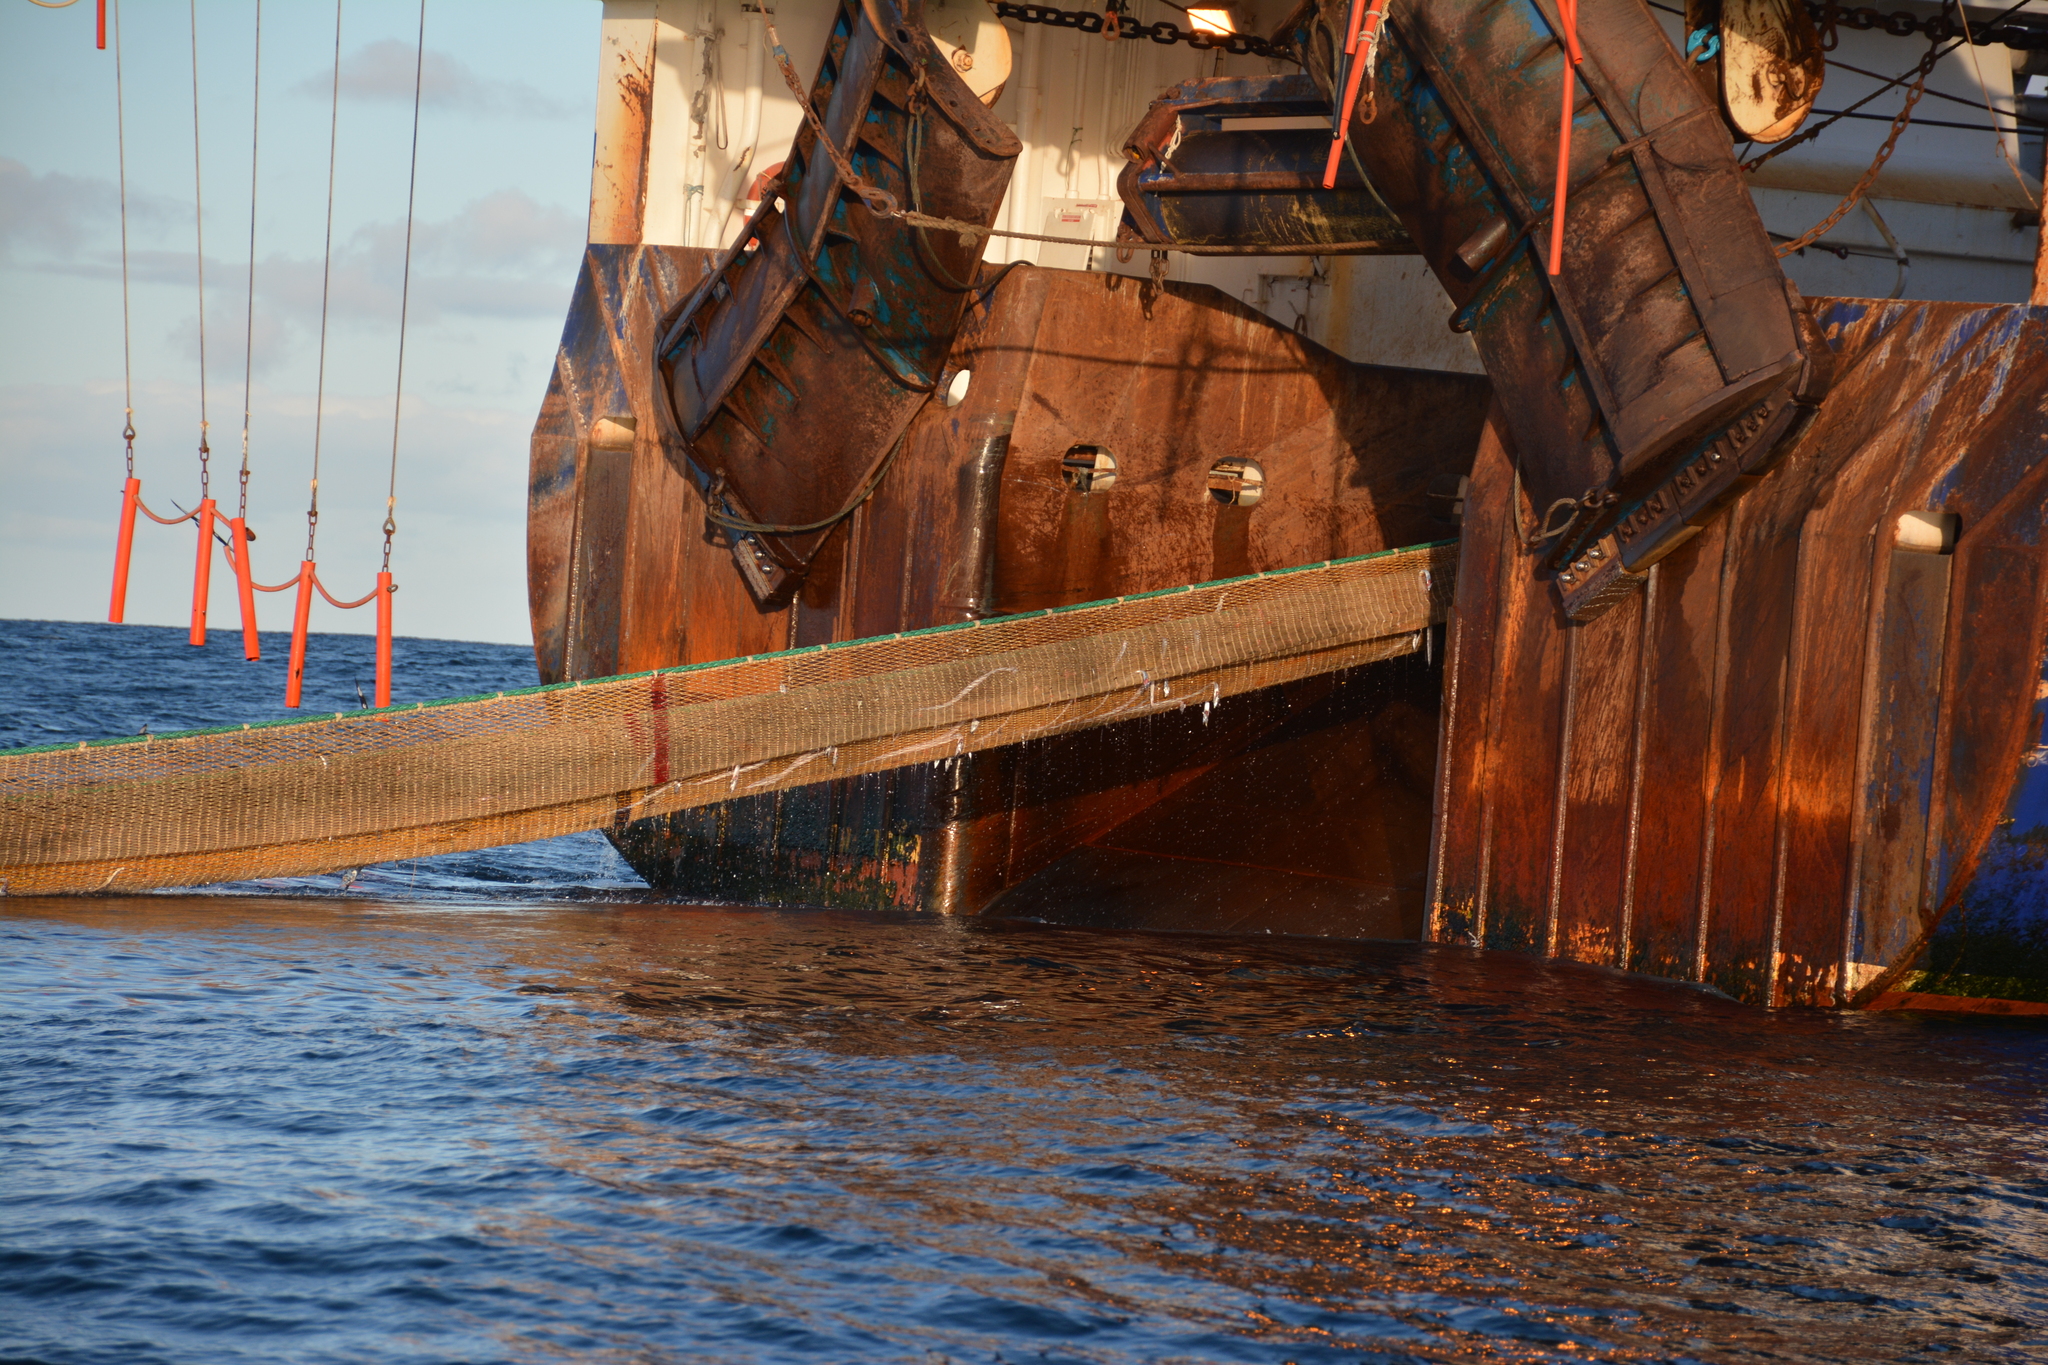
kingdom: Animalia
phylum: Chordata
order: Perciformes
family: Trichiuridae
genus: Lepidopus
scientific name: Lepidopus caudatus
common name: Silver scabbardfish
